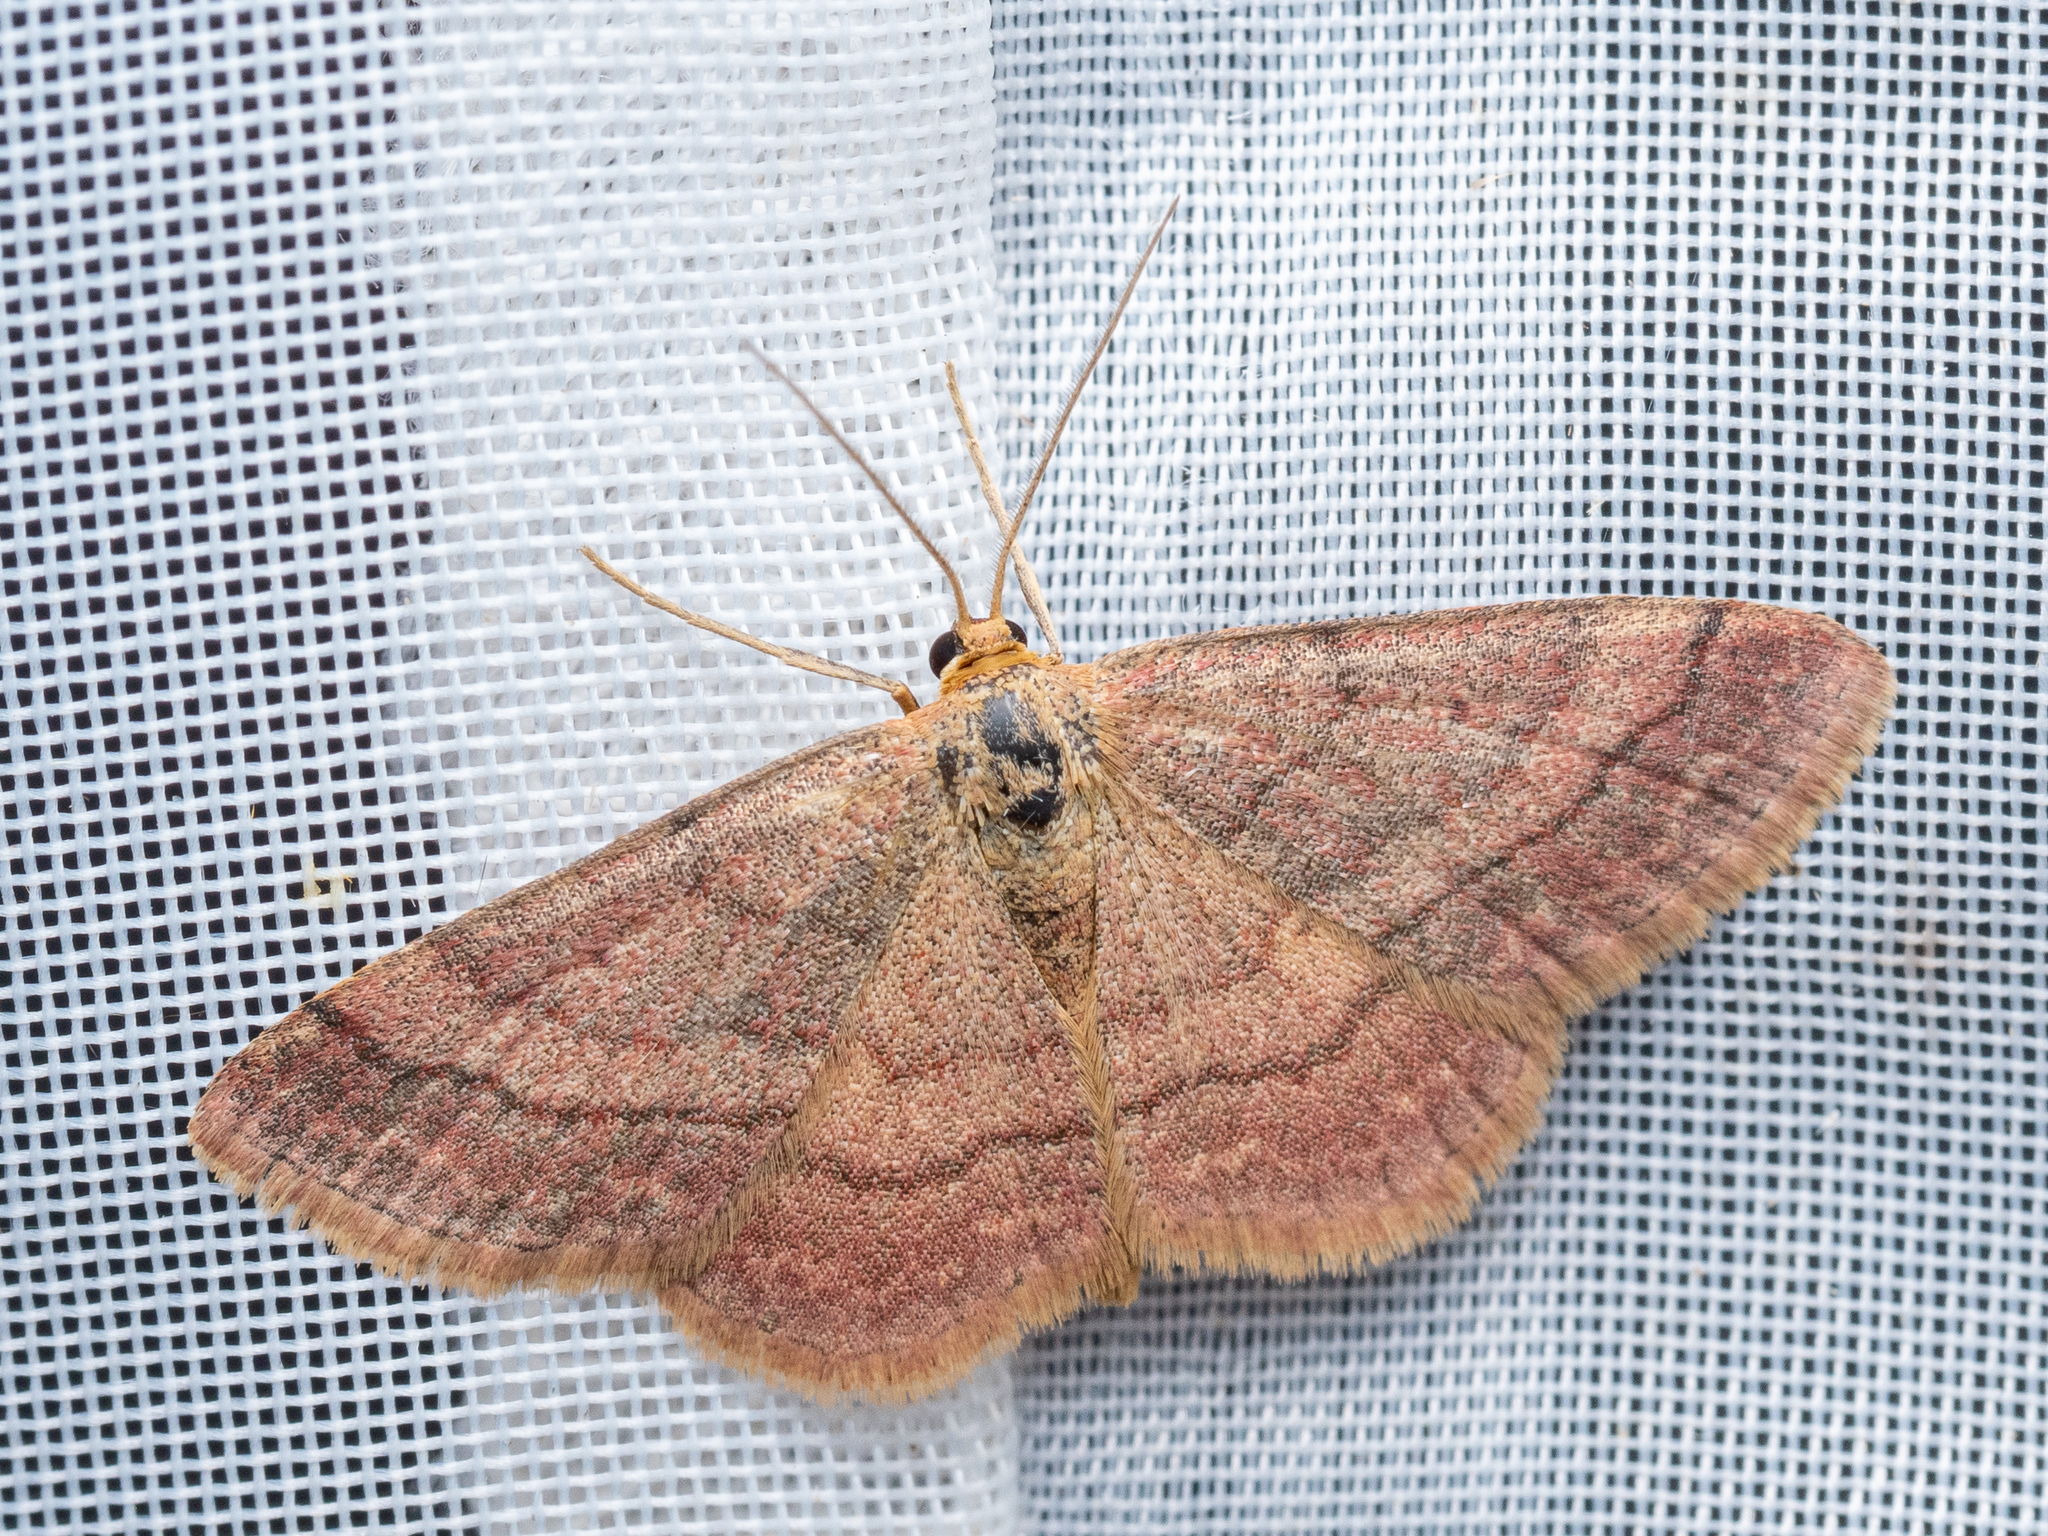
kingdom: Animalia
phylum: Arthropoda
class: Insecta
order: Lepidoptera
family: Geometridae
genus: Scopula
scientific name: Scopula rubiginata
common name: Tawny wave
